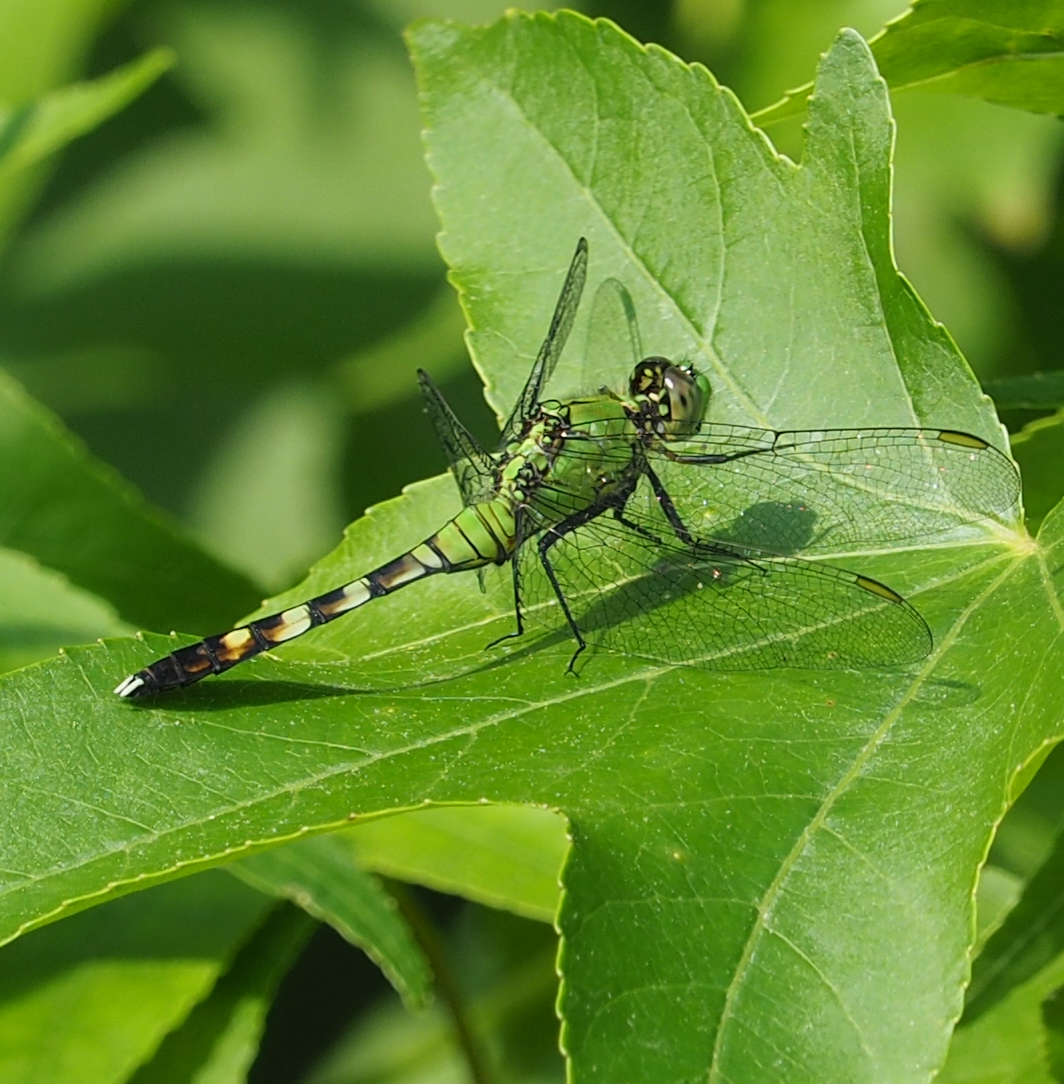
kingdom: Animalia
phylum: Arthropoda
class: Insecta
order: Odonata
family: Libellulidae
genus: Erythemis
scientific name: Erythemis simplicicollis
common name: Eastern pondhawk
